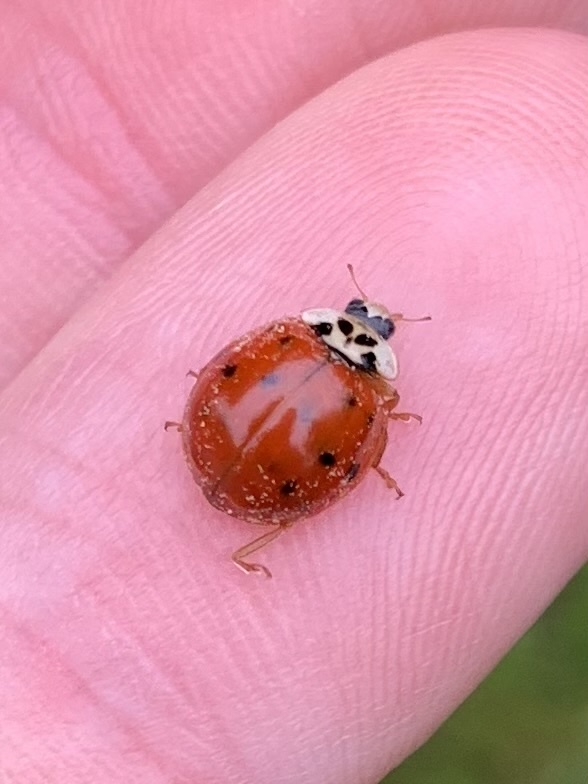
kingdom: Animalia
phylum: Arthropoda
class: Insecta
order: Coleoptera
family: Coccinellidae
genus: Harmonia
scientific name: Harmonia axyridis
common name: Harlequin ladybird
